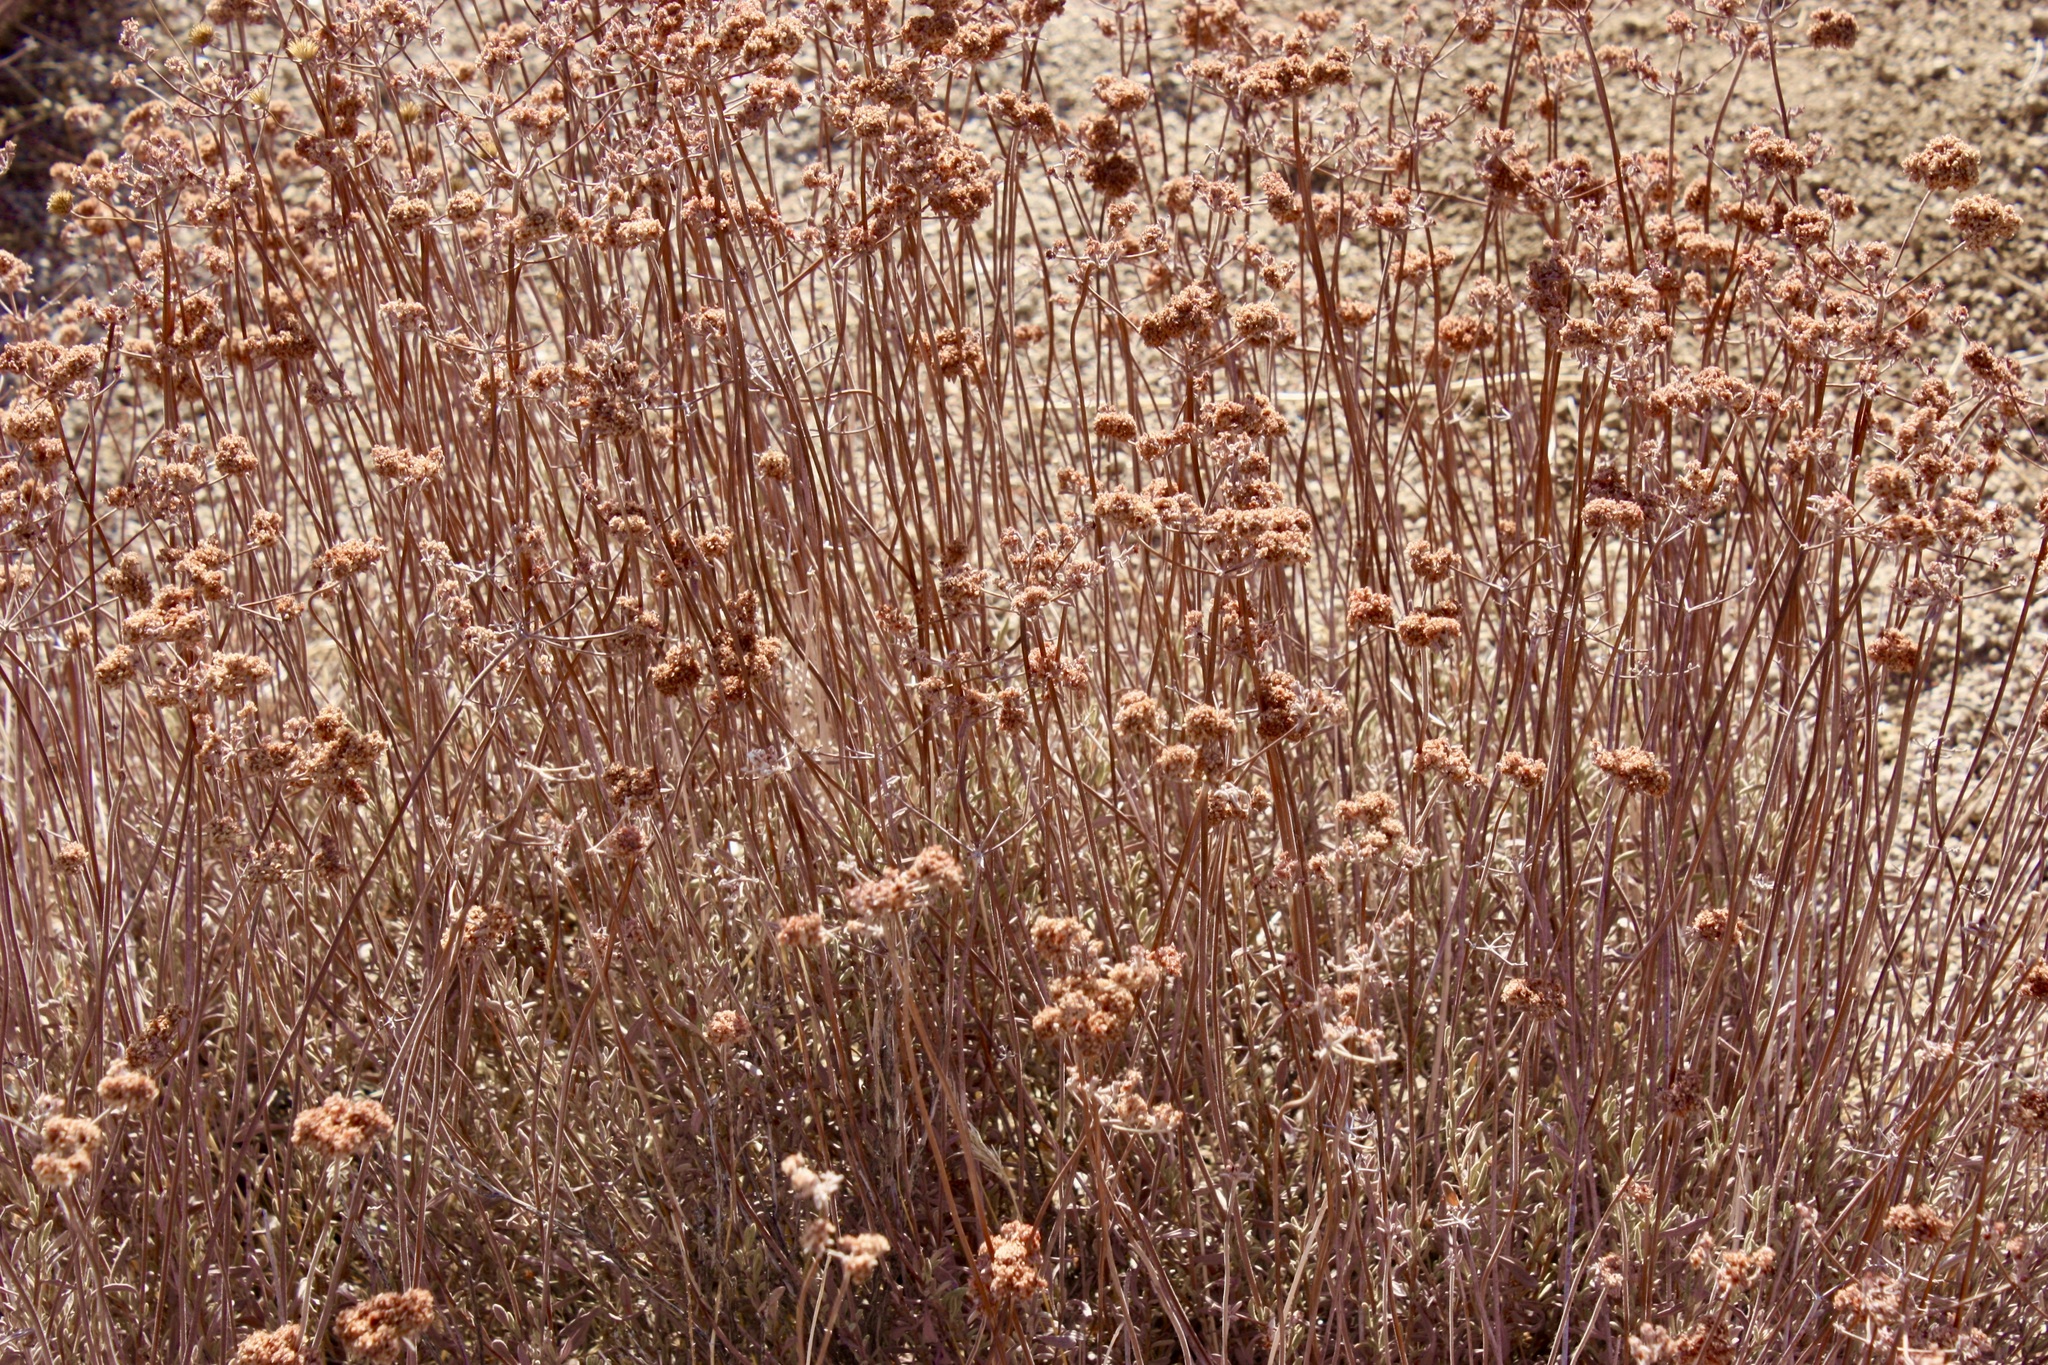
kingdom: Plantae
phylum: Tracheophyta
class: Magnoliopsida
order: Caryophyllales
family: Polygonaceae
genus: Eriogonum
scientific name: Eriogonum fasciculatum
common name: California wild buckwheat
